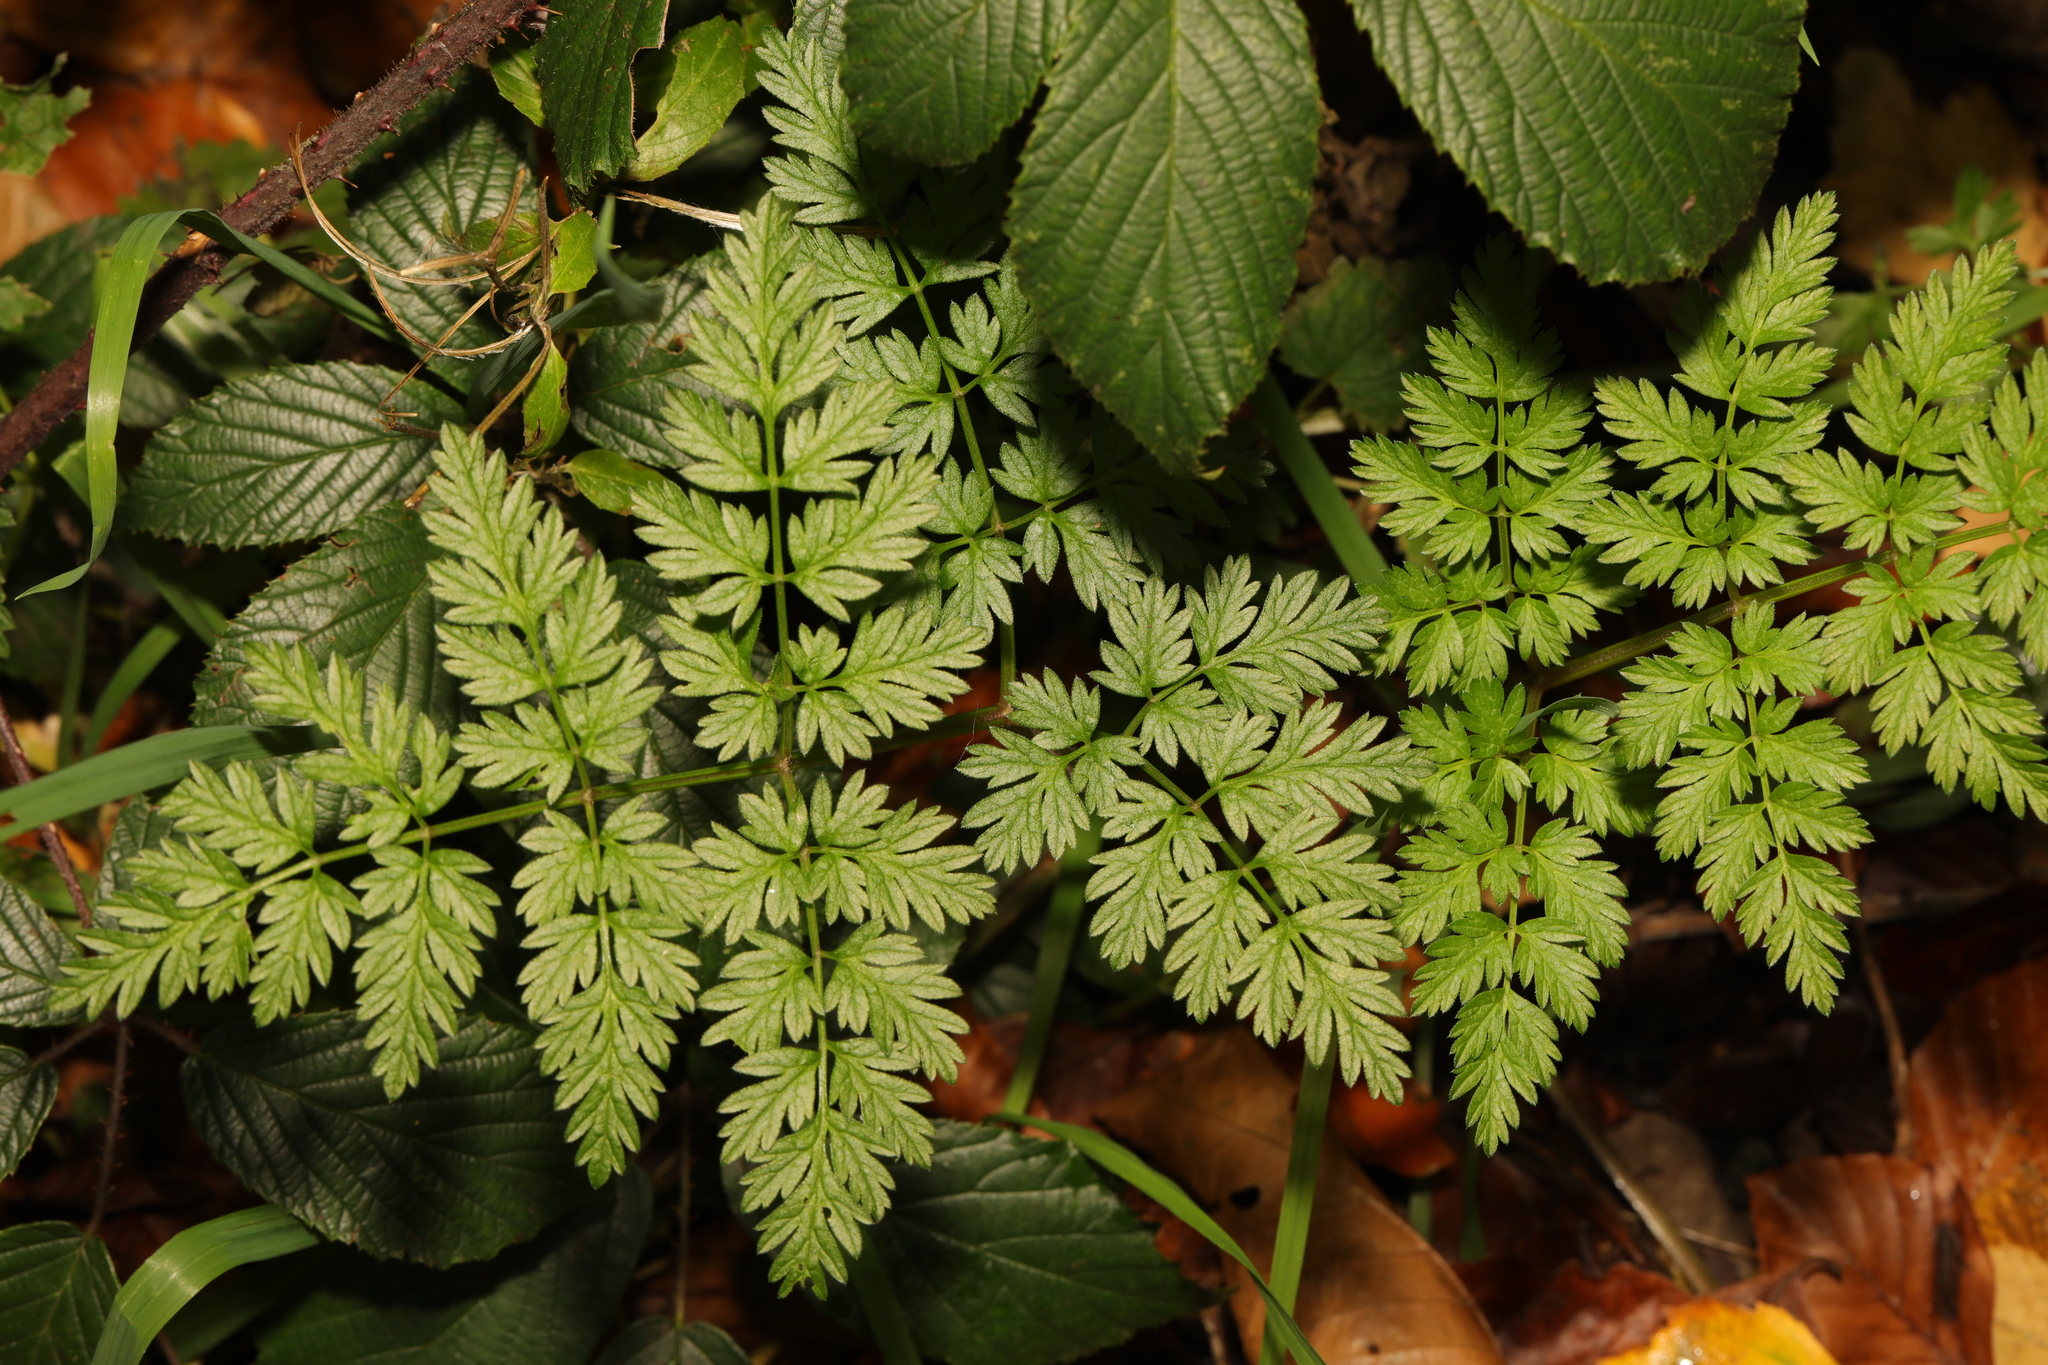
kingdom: Plantae
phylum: Tracheophyta
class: Magnoliopsida
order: Apiales
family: Apiaceae
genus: Anthriscus
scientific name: Anthriscus sylvestris
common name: Cow parsley
